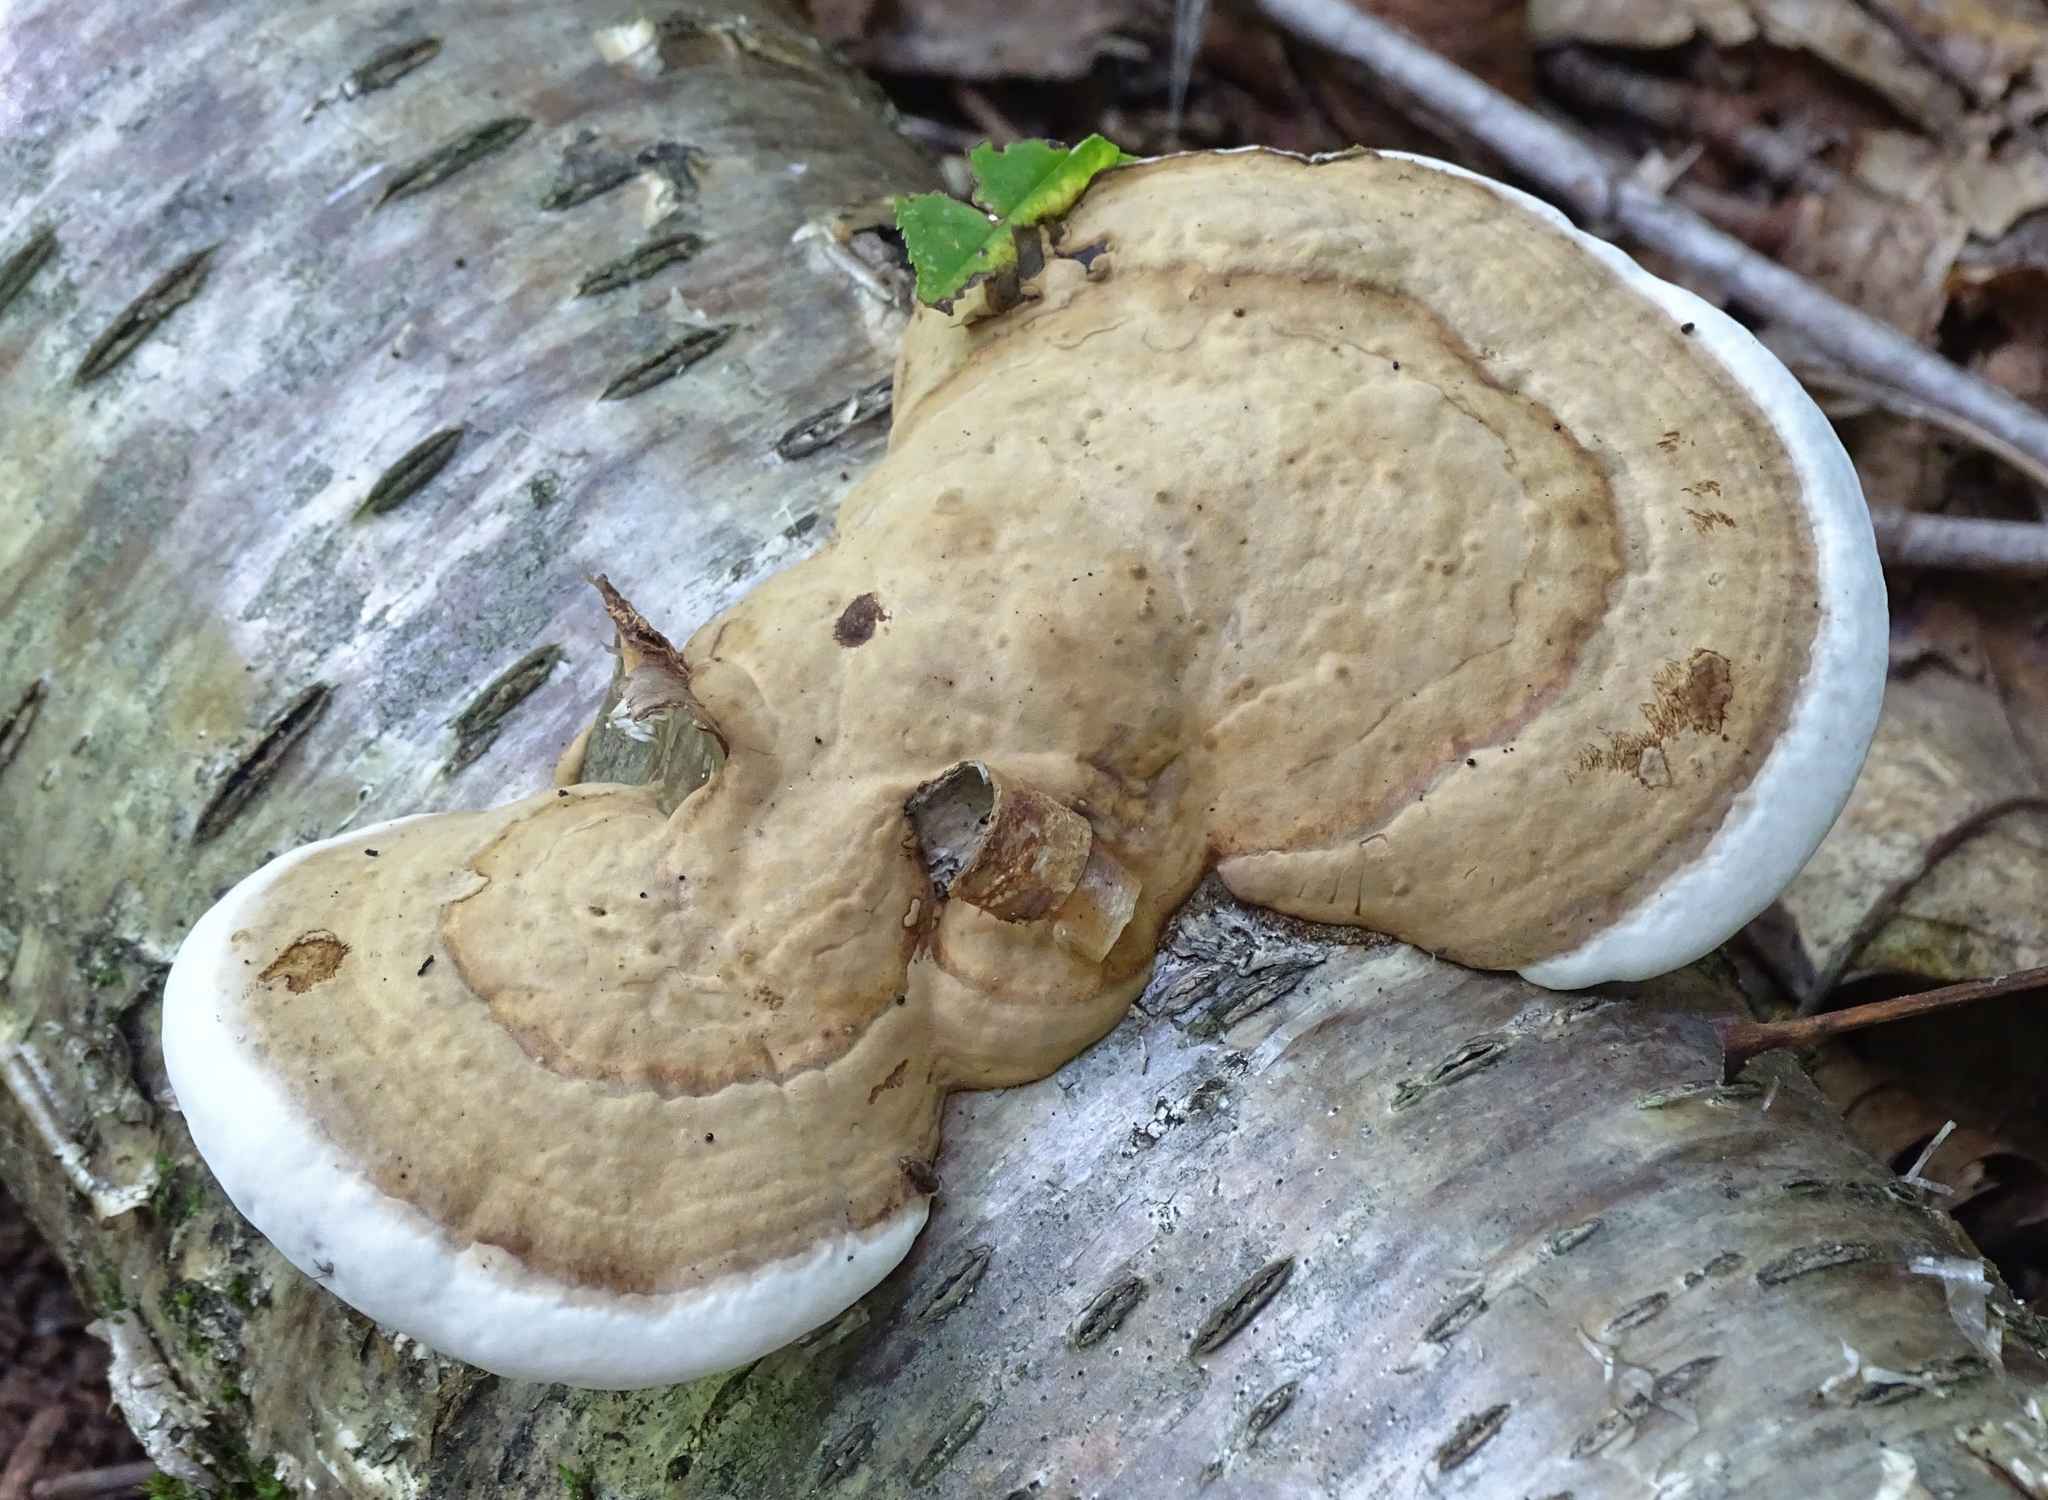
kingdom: Fungi
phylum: Basidiomycota
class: Agaricomycetes
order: Polyporales
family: Polyporaceae
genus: Ganoderma
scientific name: Ganoderma applanatum
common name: Artist's bracket
